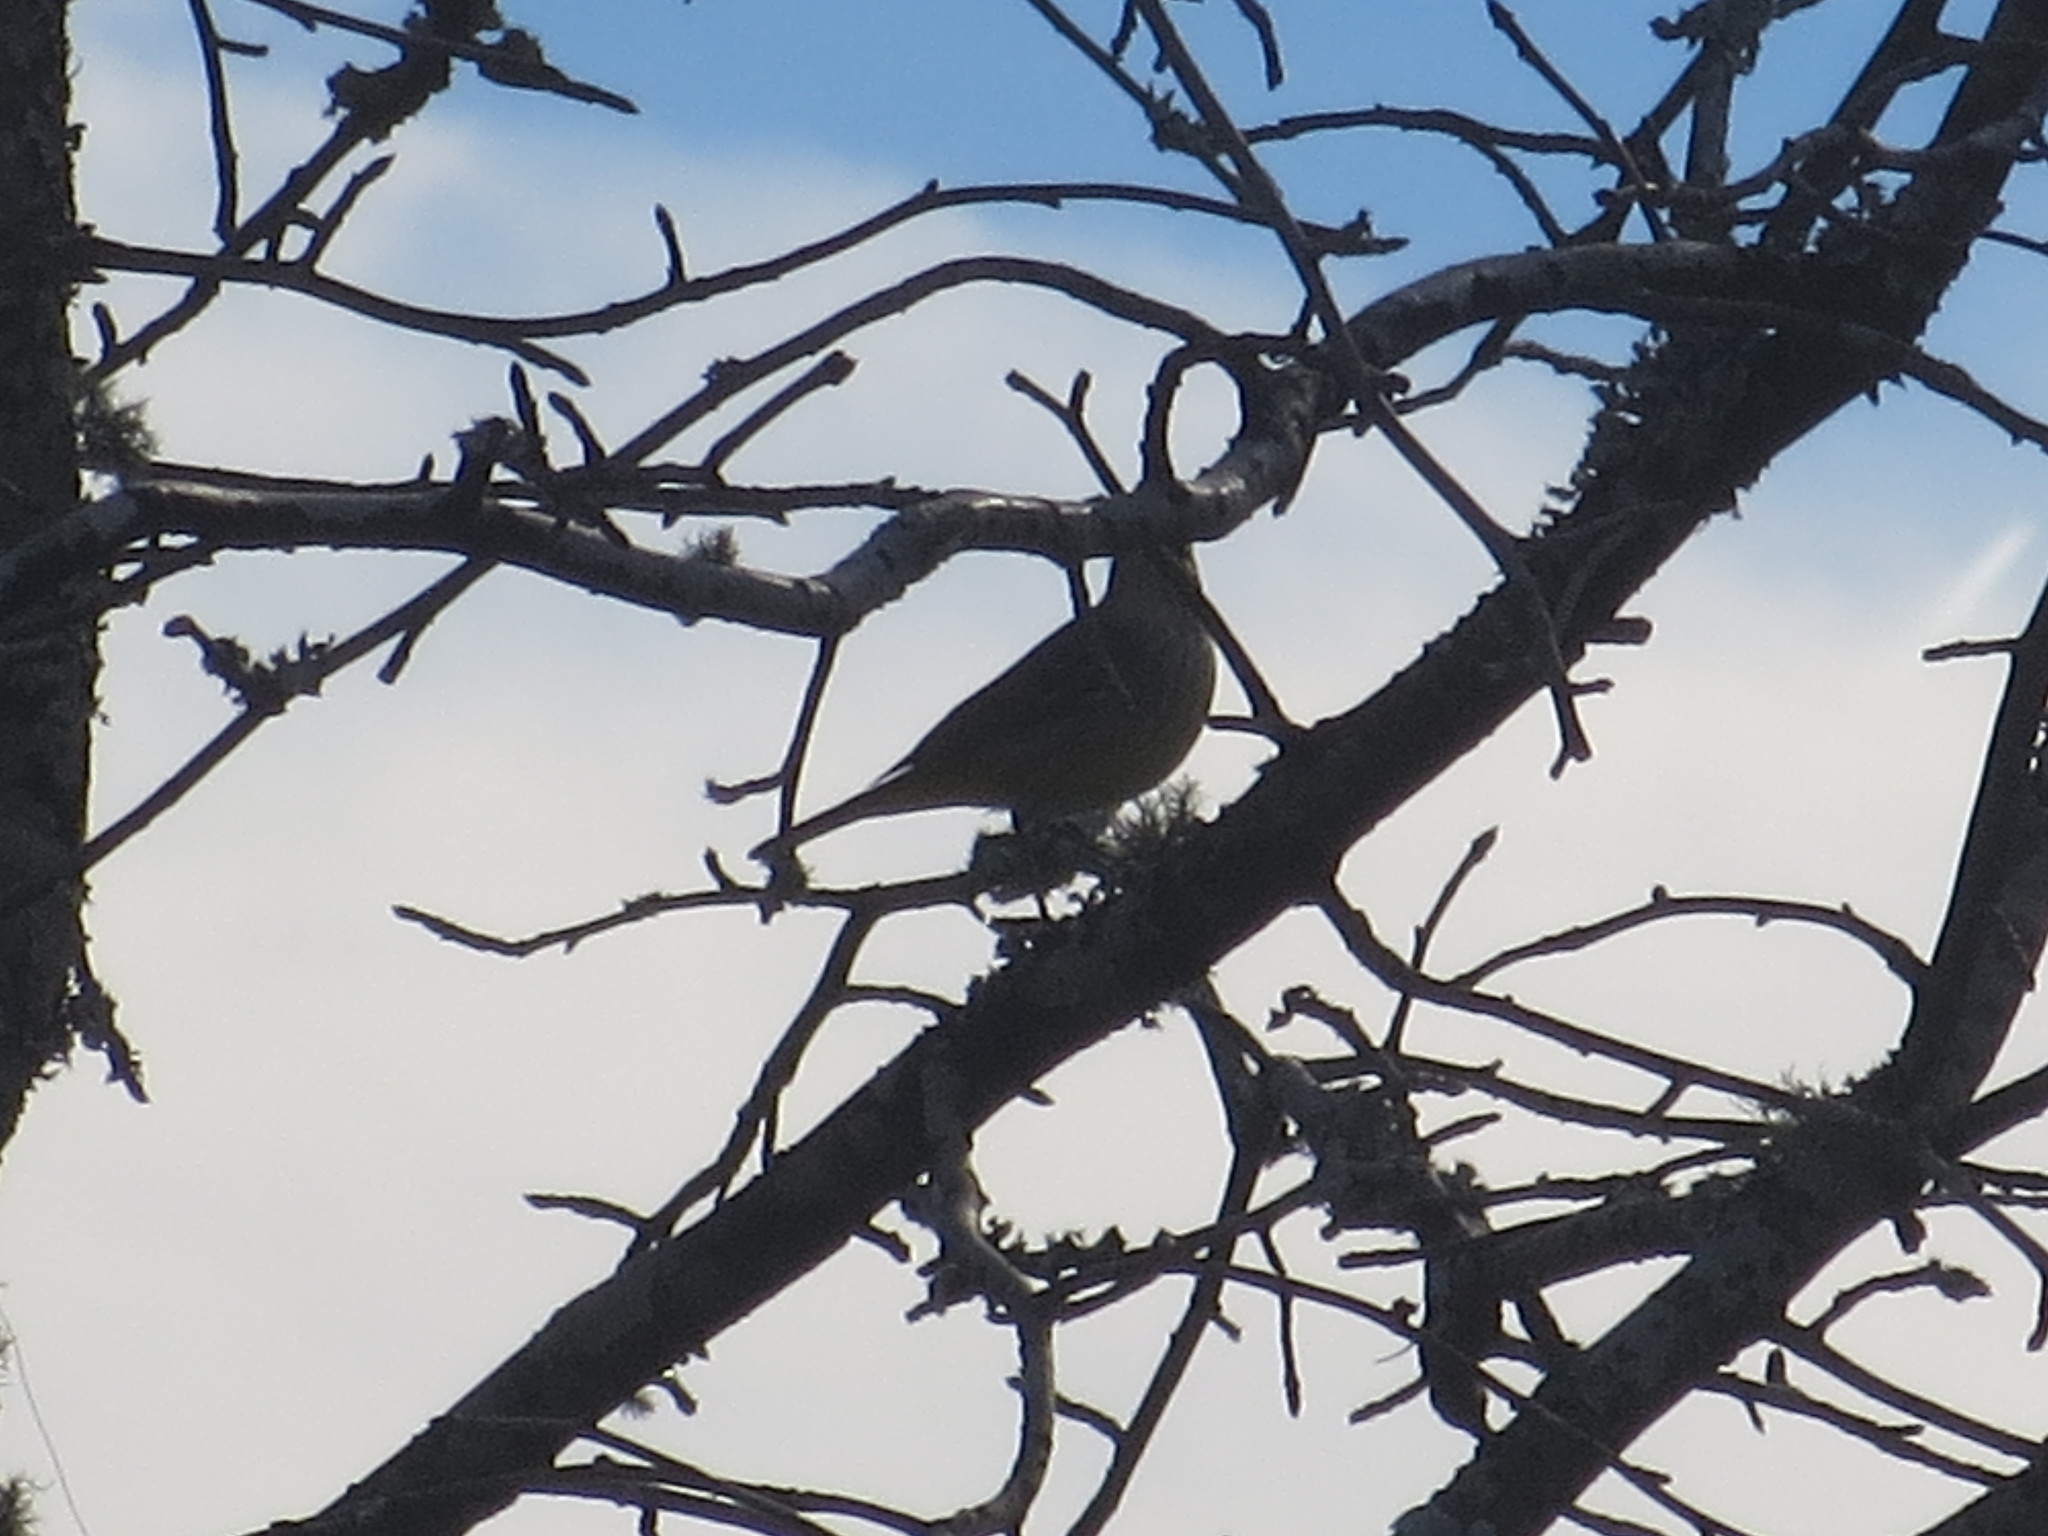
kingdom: Animalia
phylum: Chordata
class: Aves
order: Passeriformes
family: Parulidae
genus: Setophaga
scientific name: Setophaga palmarum
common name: Palm warbler
